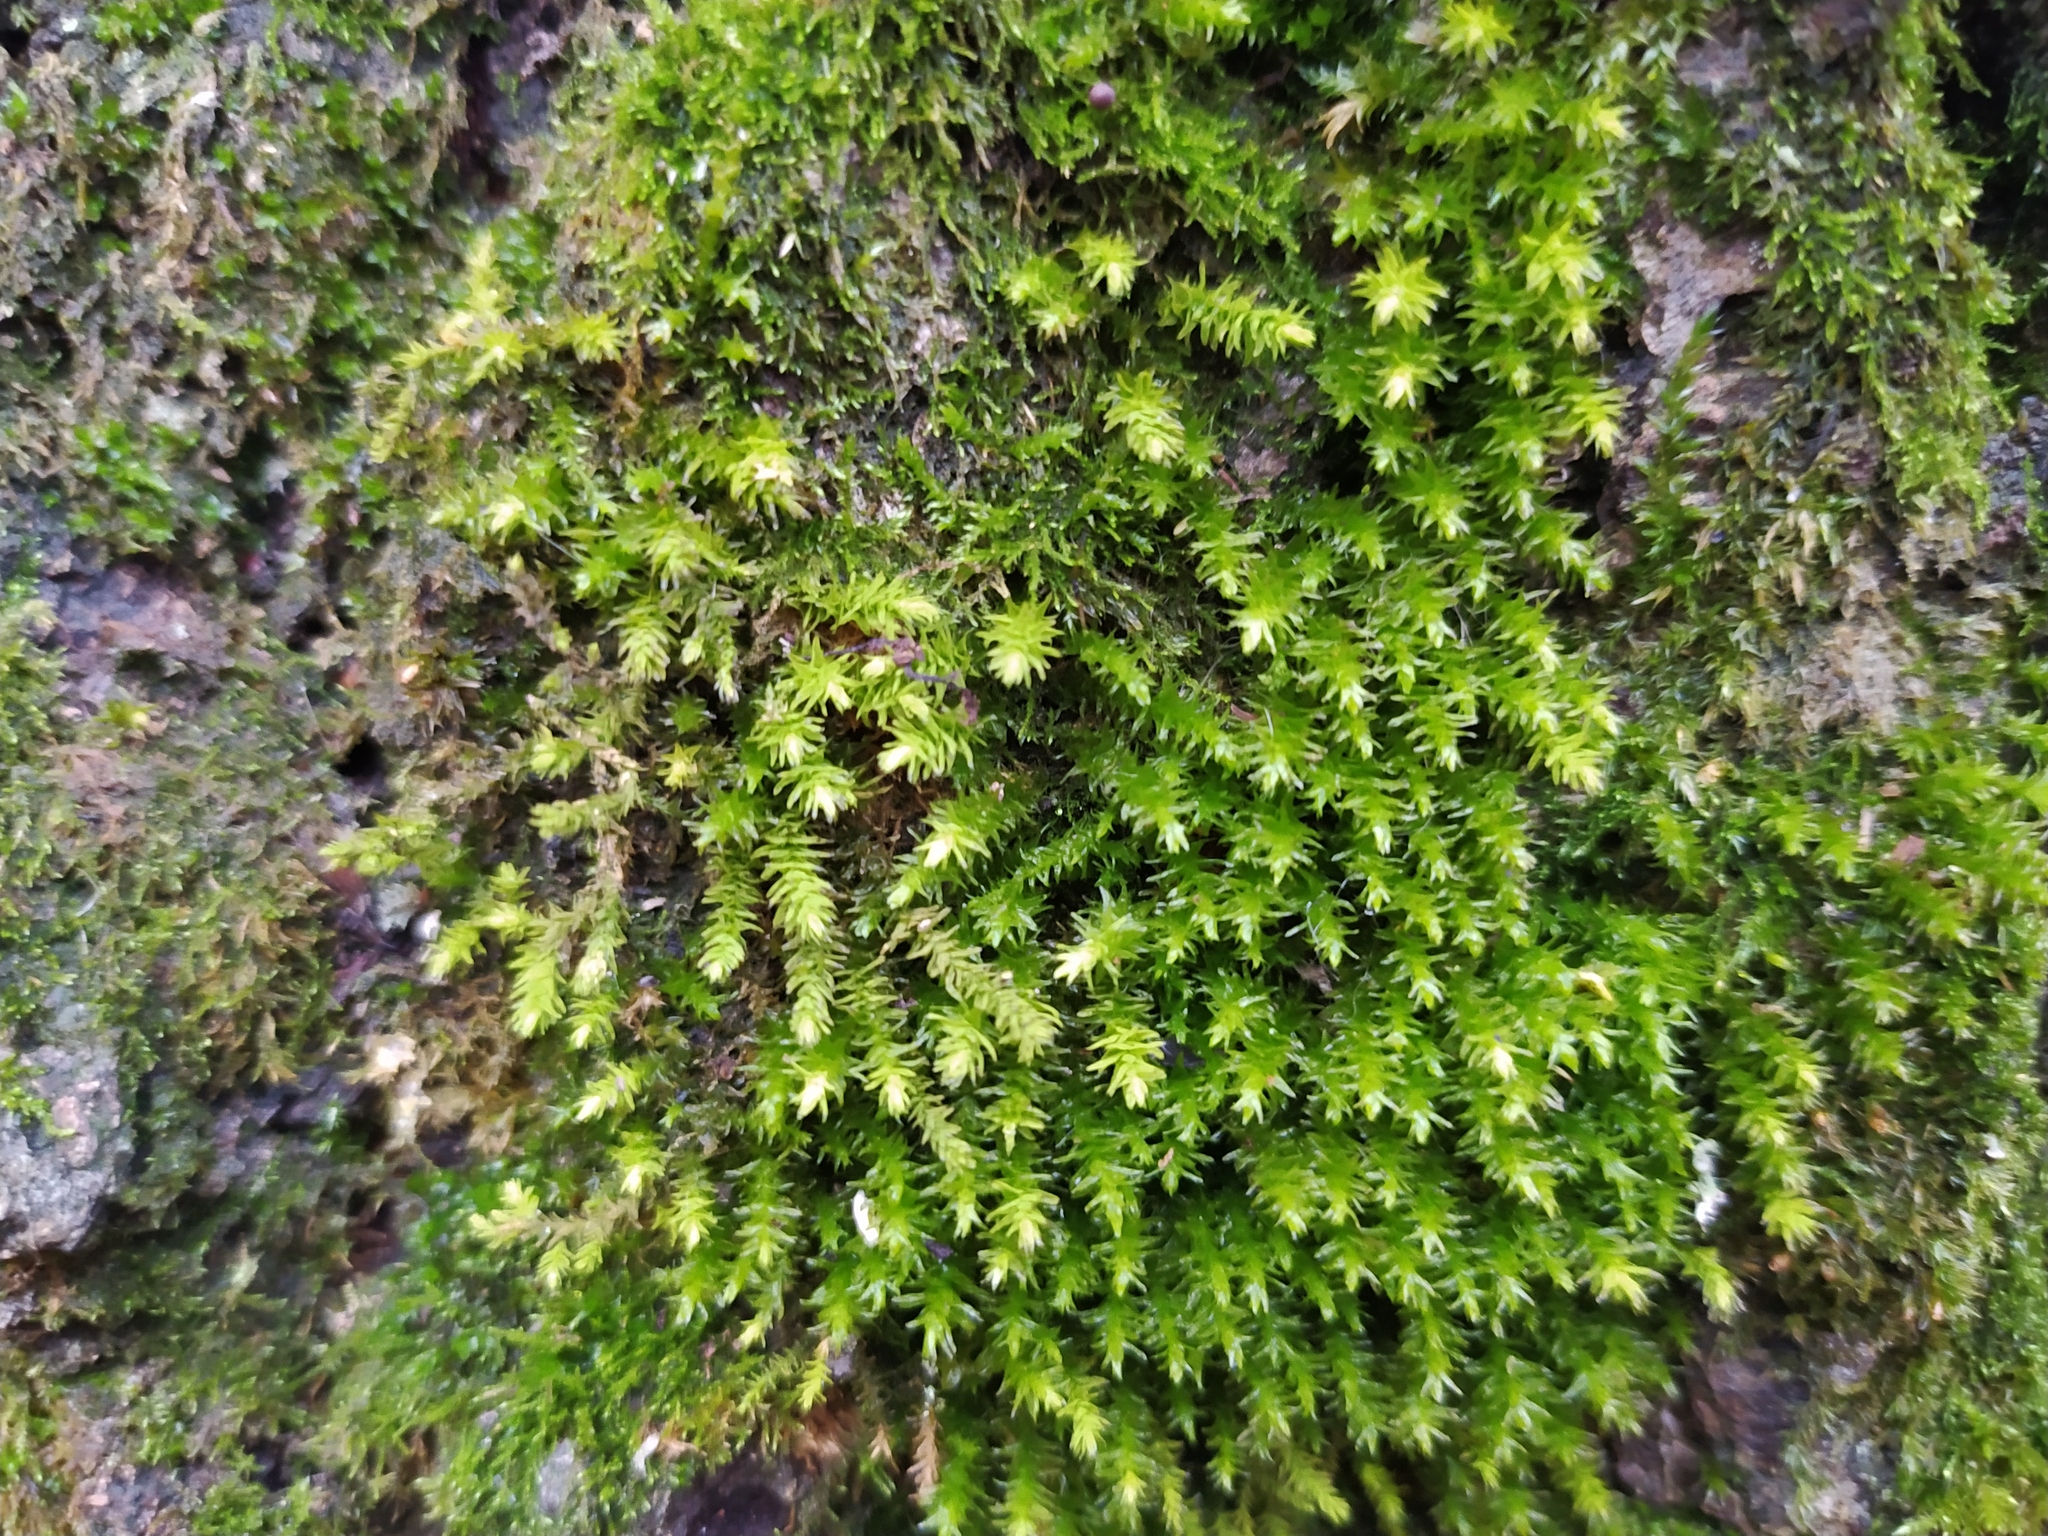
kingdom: Plantae
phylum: Bryophyta
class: Bryopsida
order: Hypnales
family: Anomodontaceae
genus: Anomodon
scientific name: Anomodon viticulosus
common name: Tall anomodon
